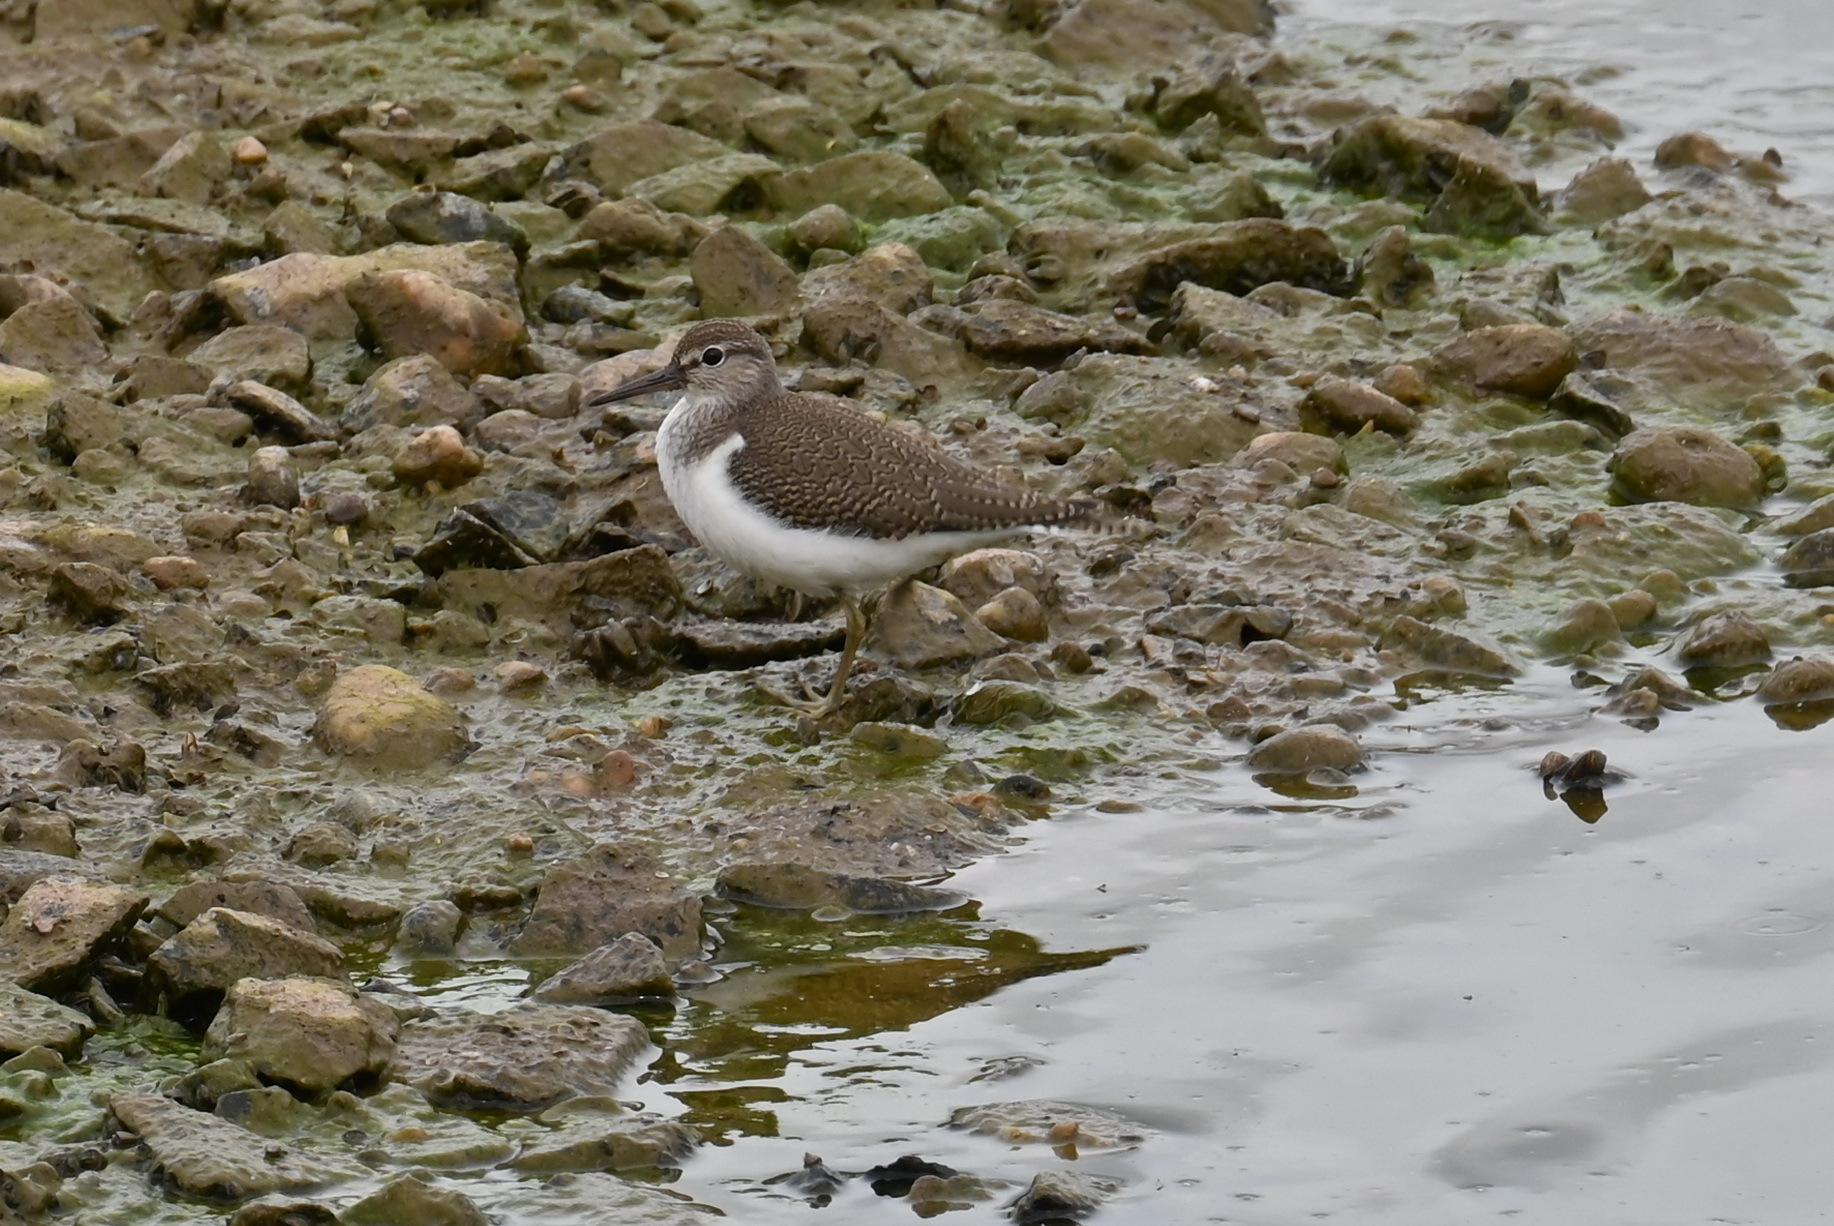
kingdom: Animalia
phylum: Chordata
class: Aves
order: Charadriiformes
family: Scolopacidae
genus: Actitis
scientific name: Actitis hypoleucos
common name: Common sandpiper
